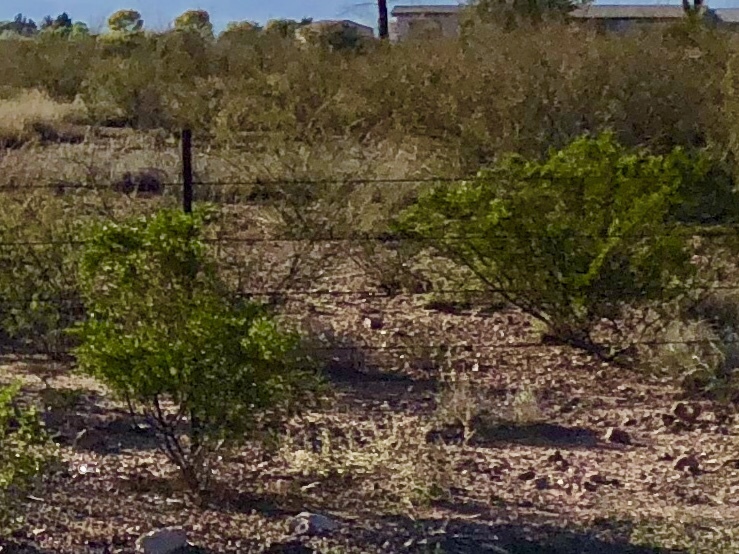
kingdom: Plantae
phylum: Tracheophyta
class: Magnoliopsida
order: Zygophyllales
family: Zygophyllaceae
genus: Larrea
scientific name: Larrea tridentata
